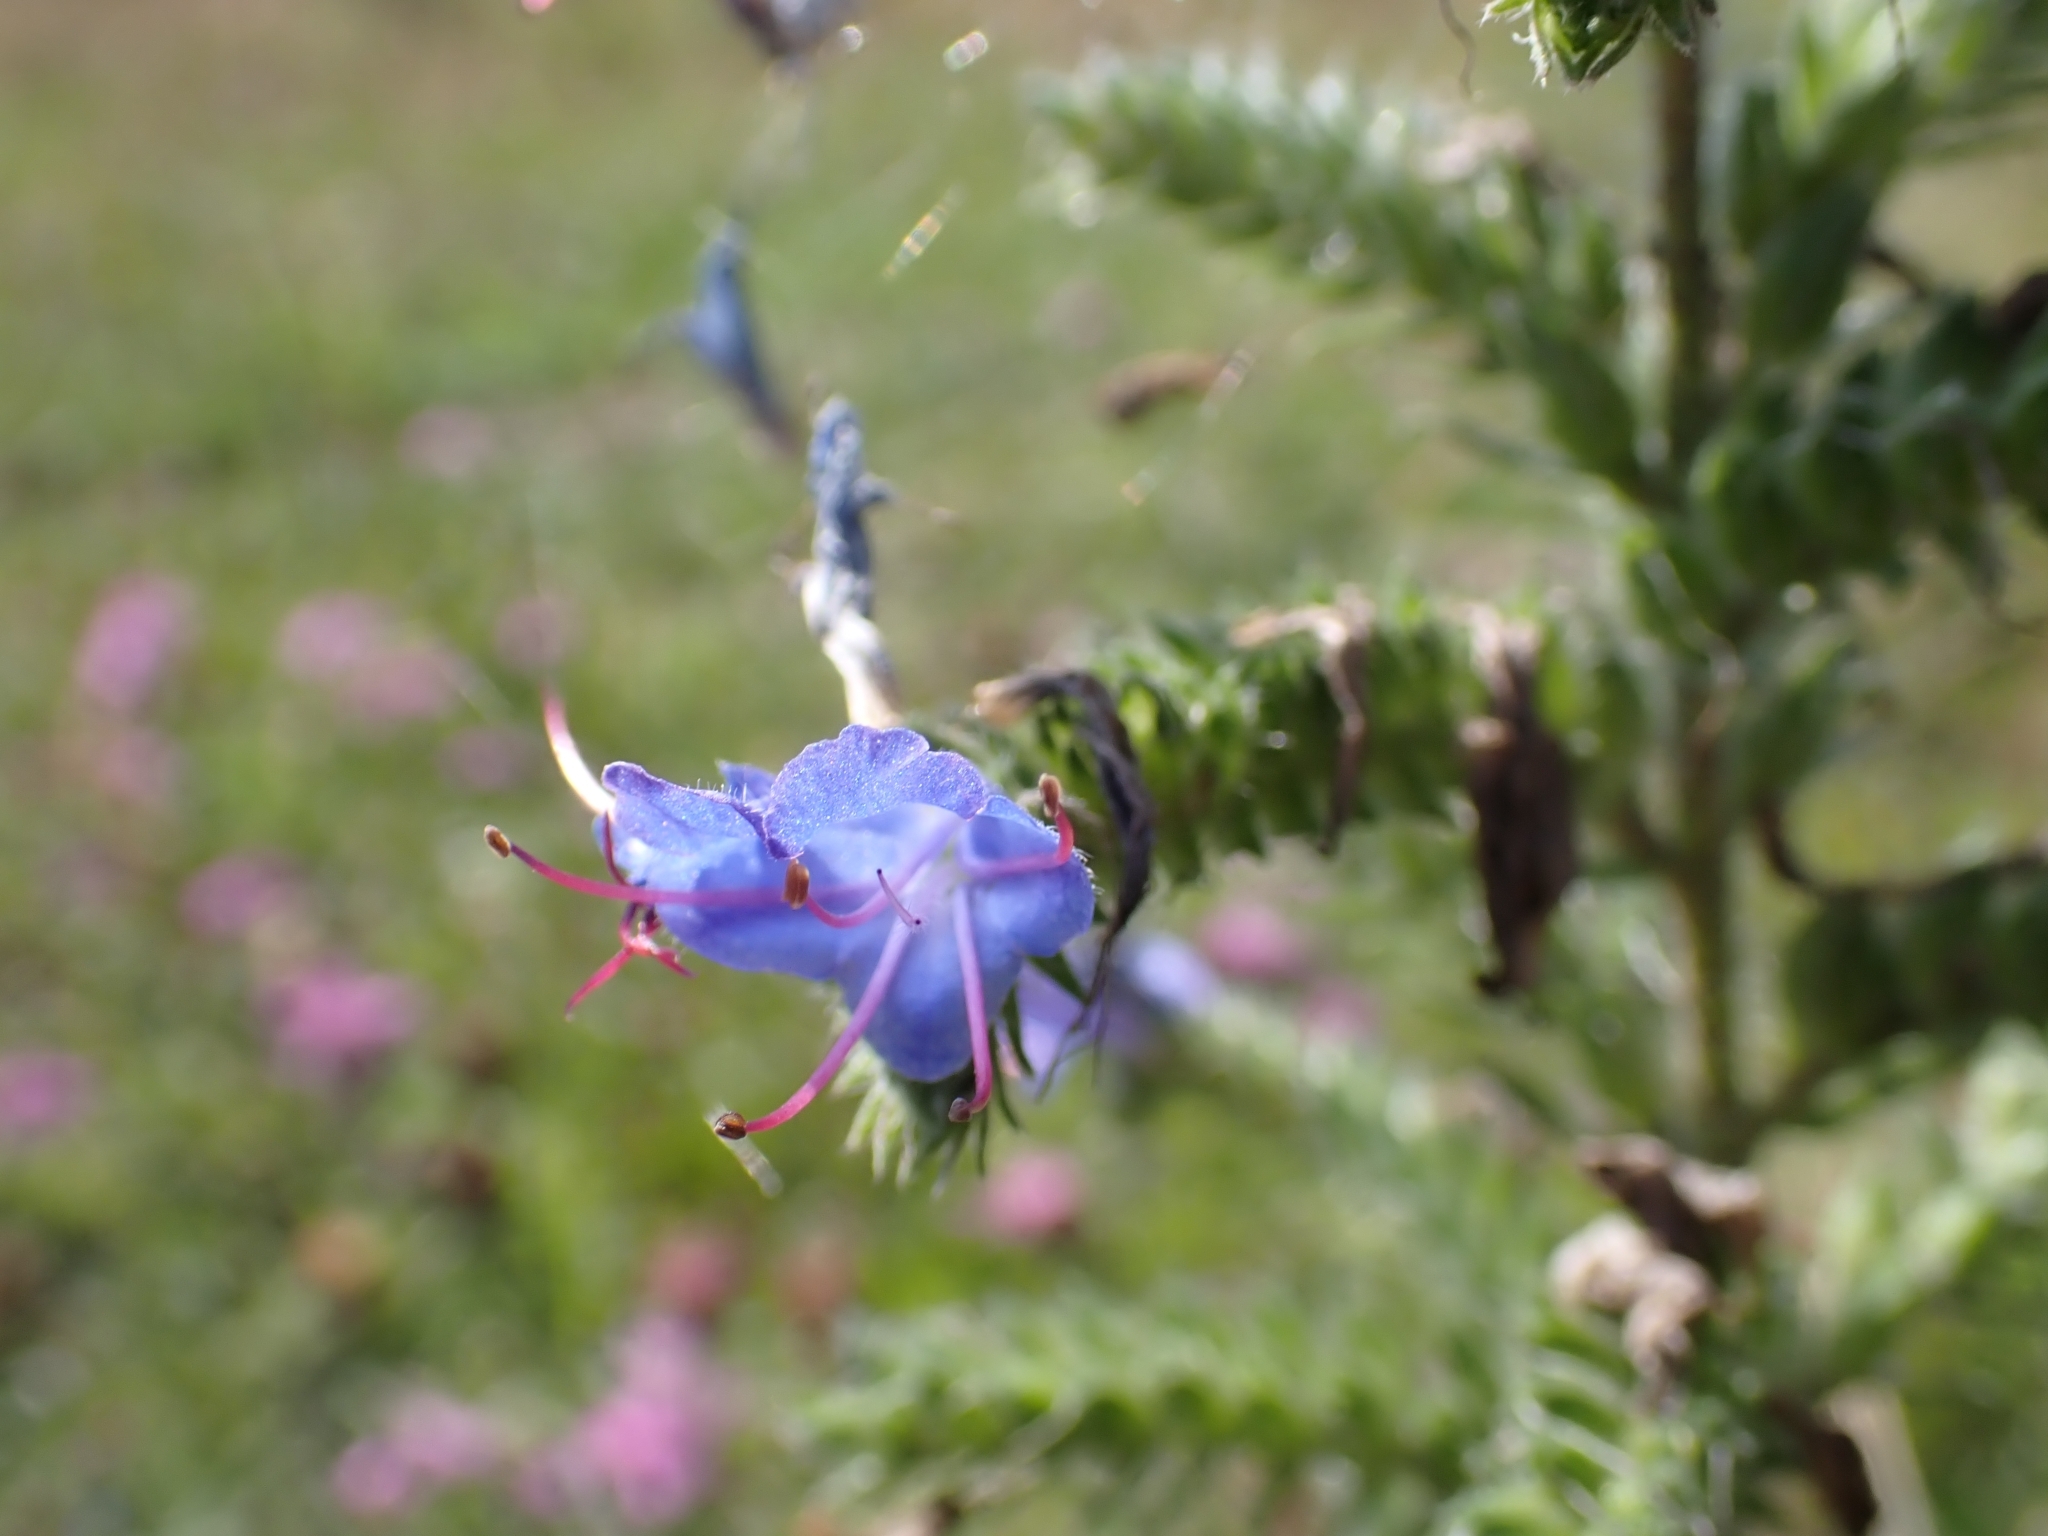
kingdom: Plantae
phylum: Tracheophyta
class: Magnoliopsida
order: Boraginales
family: Boraginaceae
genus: Echium
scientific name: Echium vulgare
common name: Common viper's bugloss
